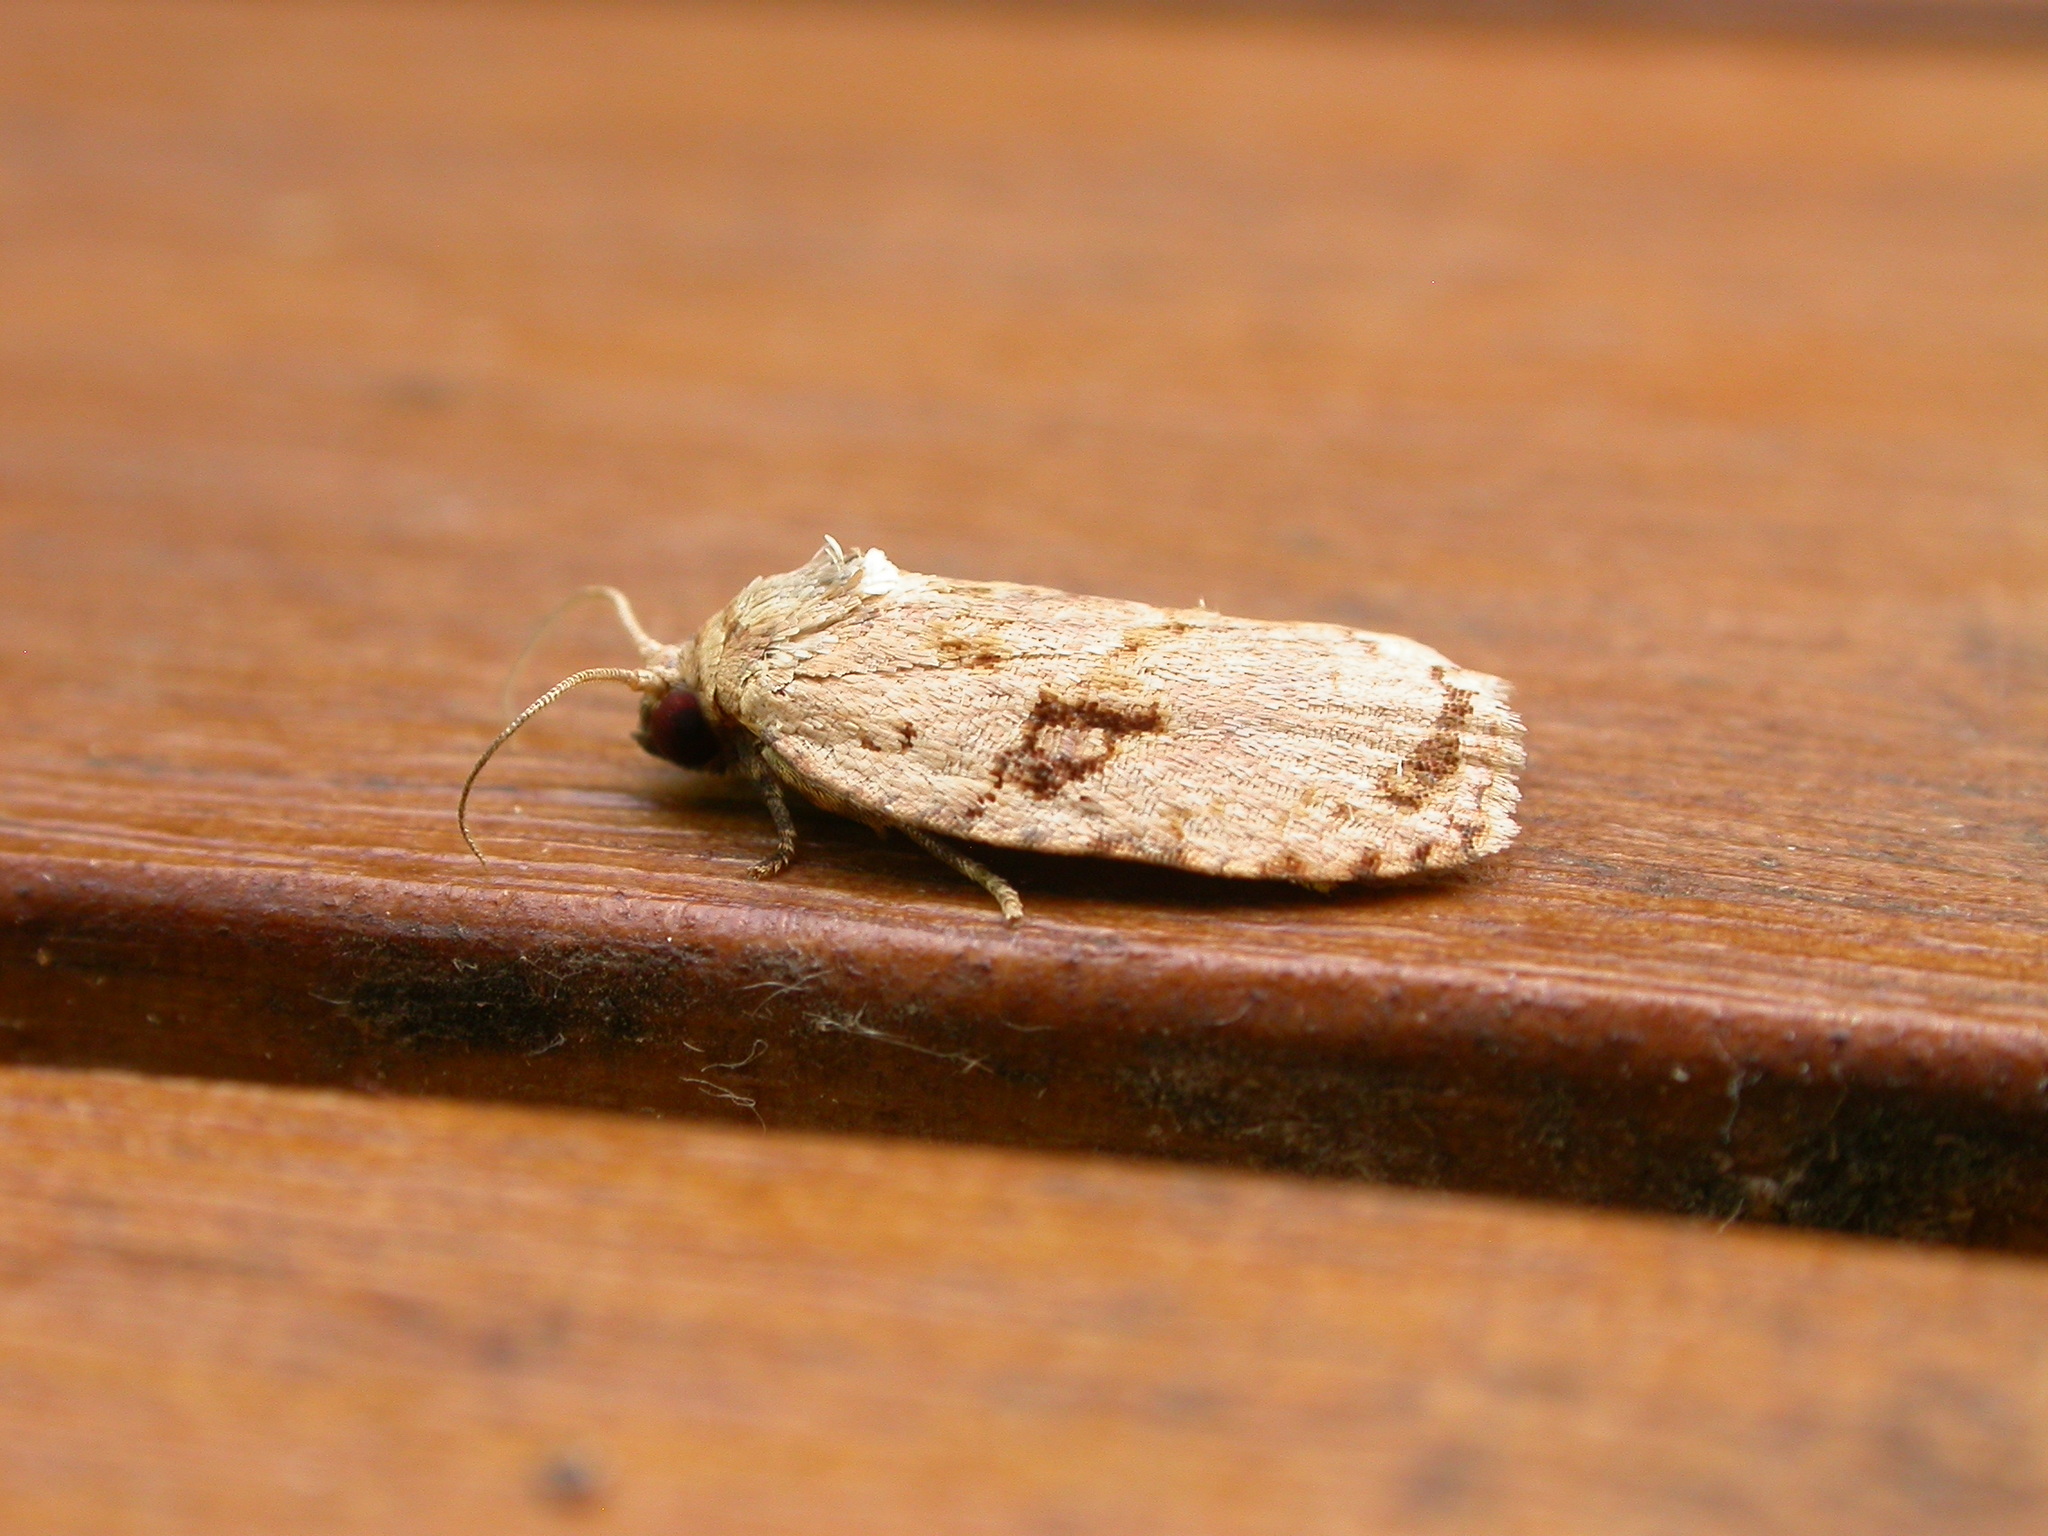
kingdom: Animalia
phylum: Arthropoda
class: Insecta
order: Lepidoptera
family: Tortricidae
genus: Homona
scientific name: Homona mermerodes
